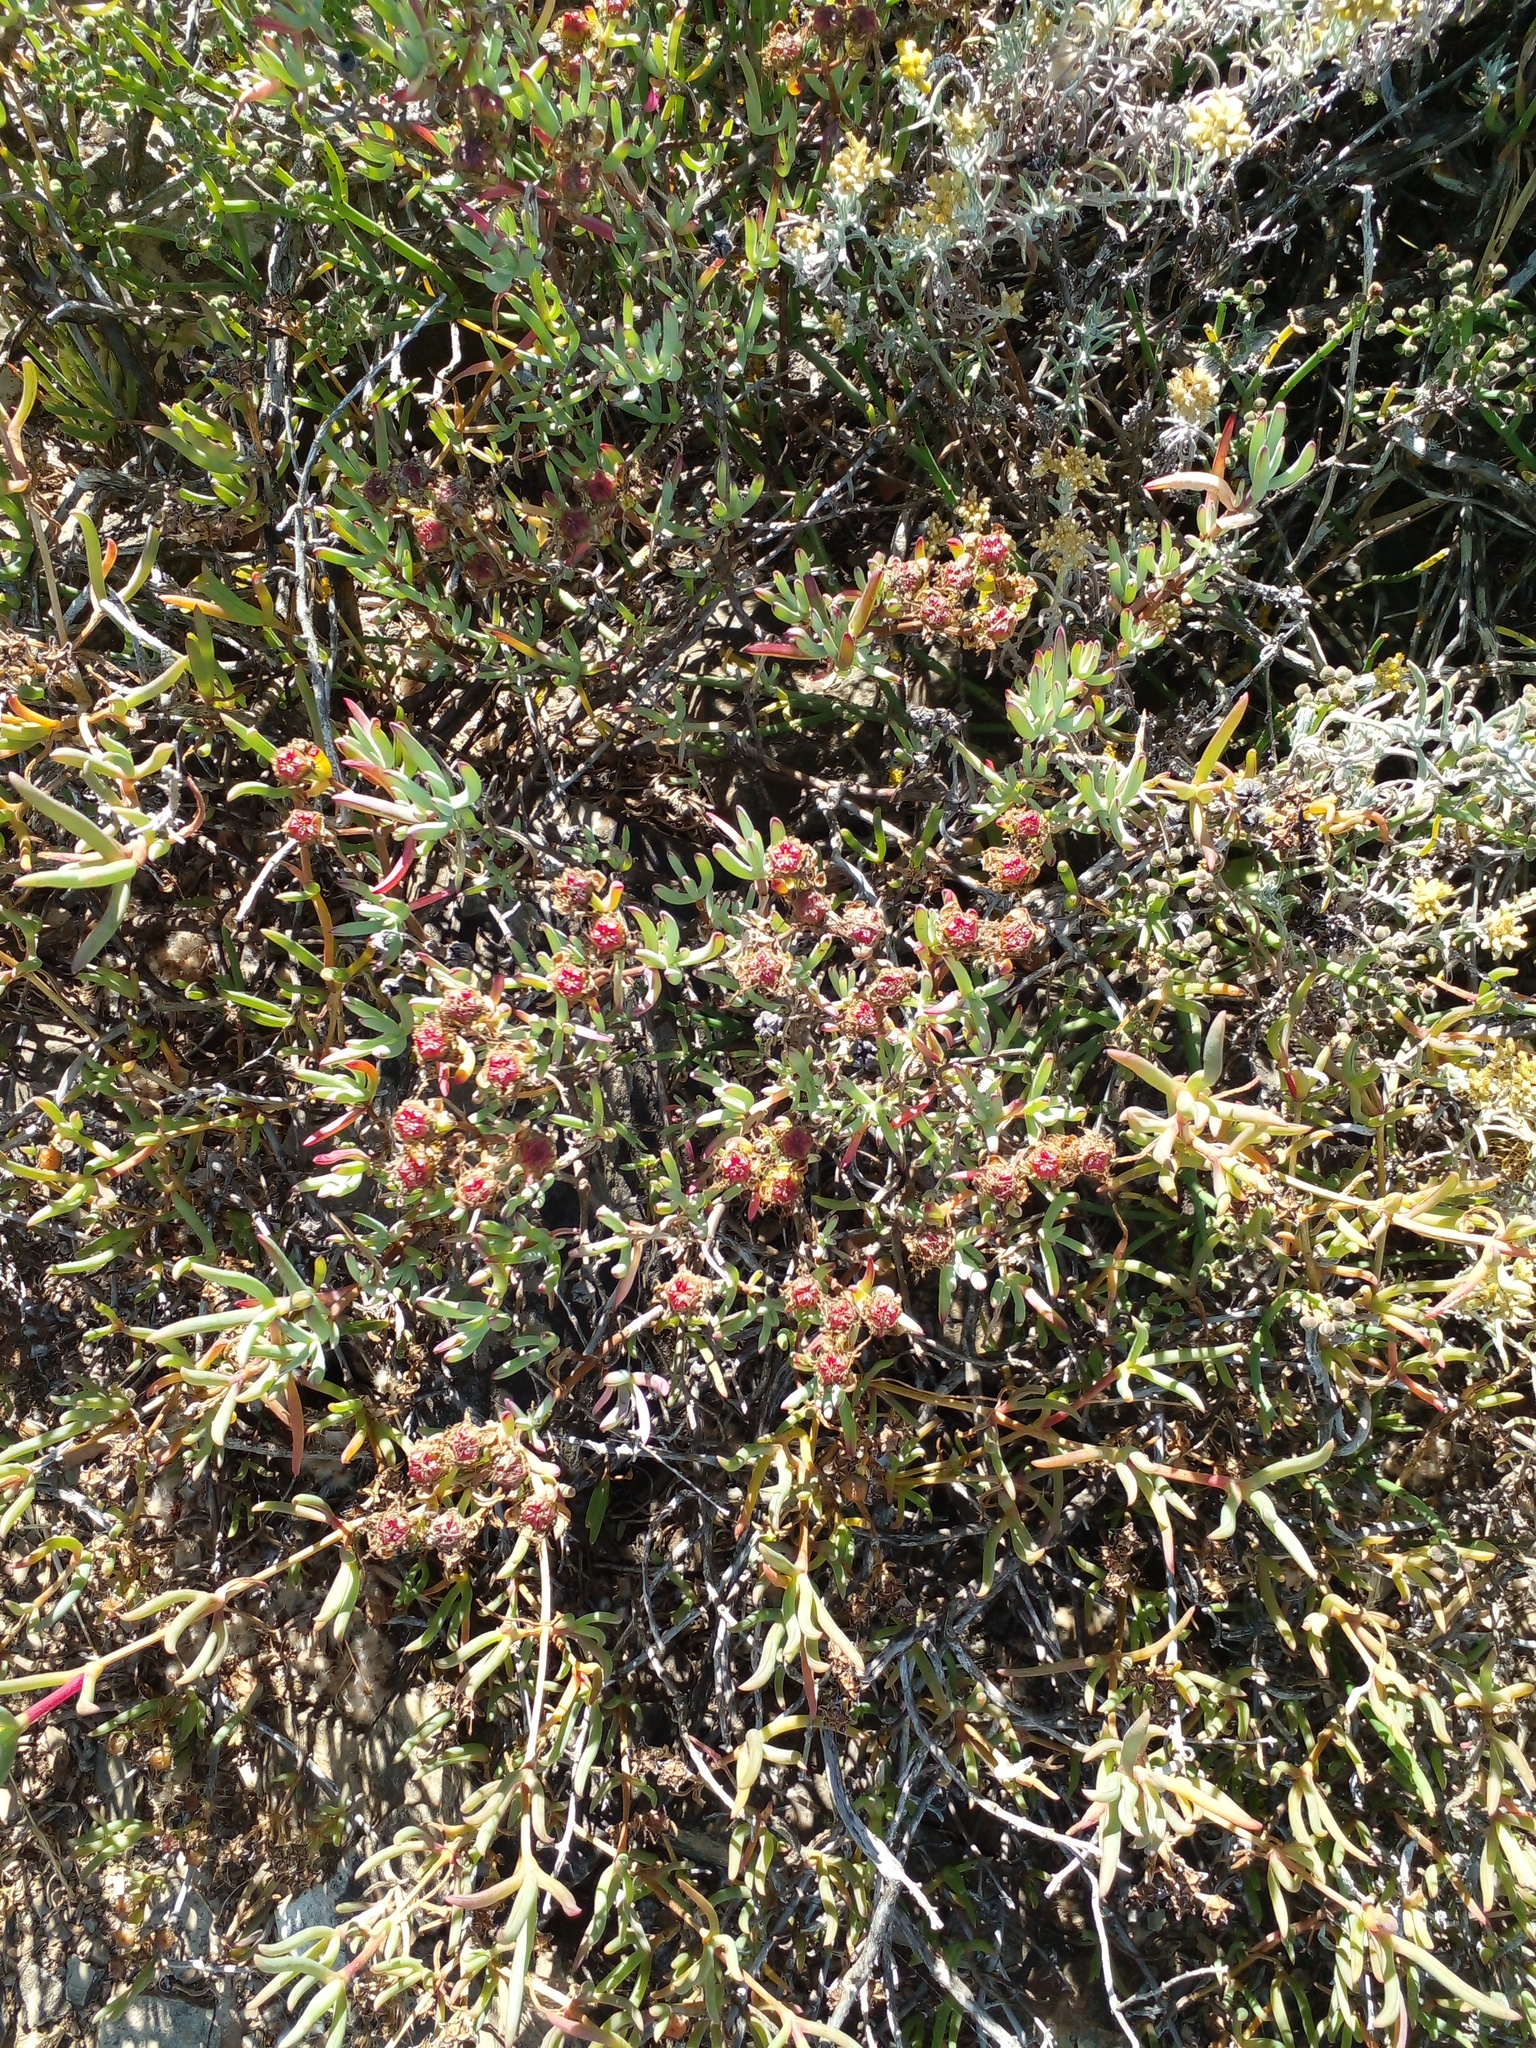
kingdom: Plantae
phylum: Tracheophyta
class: Magnoliopsida
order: Caryophyllales
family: Aizoaceae
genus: Lampranthus
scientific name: Lampranthus stipulaceus
